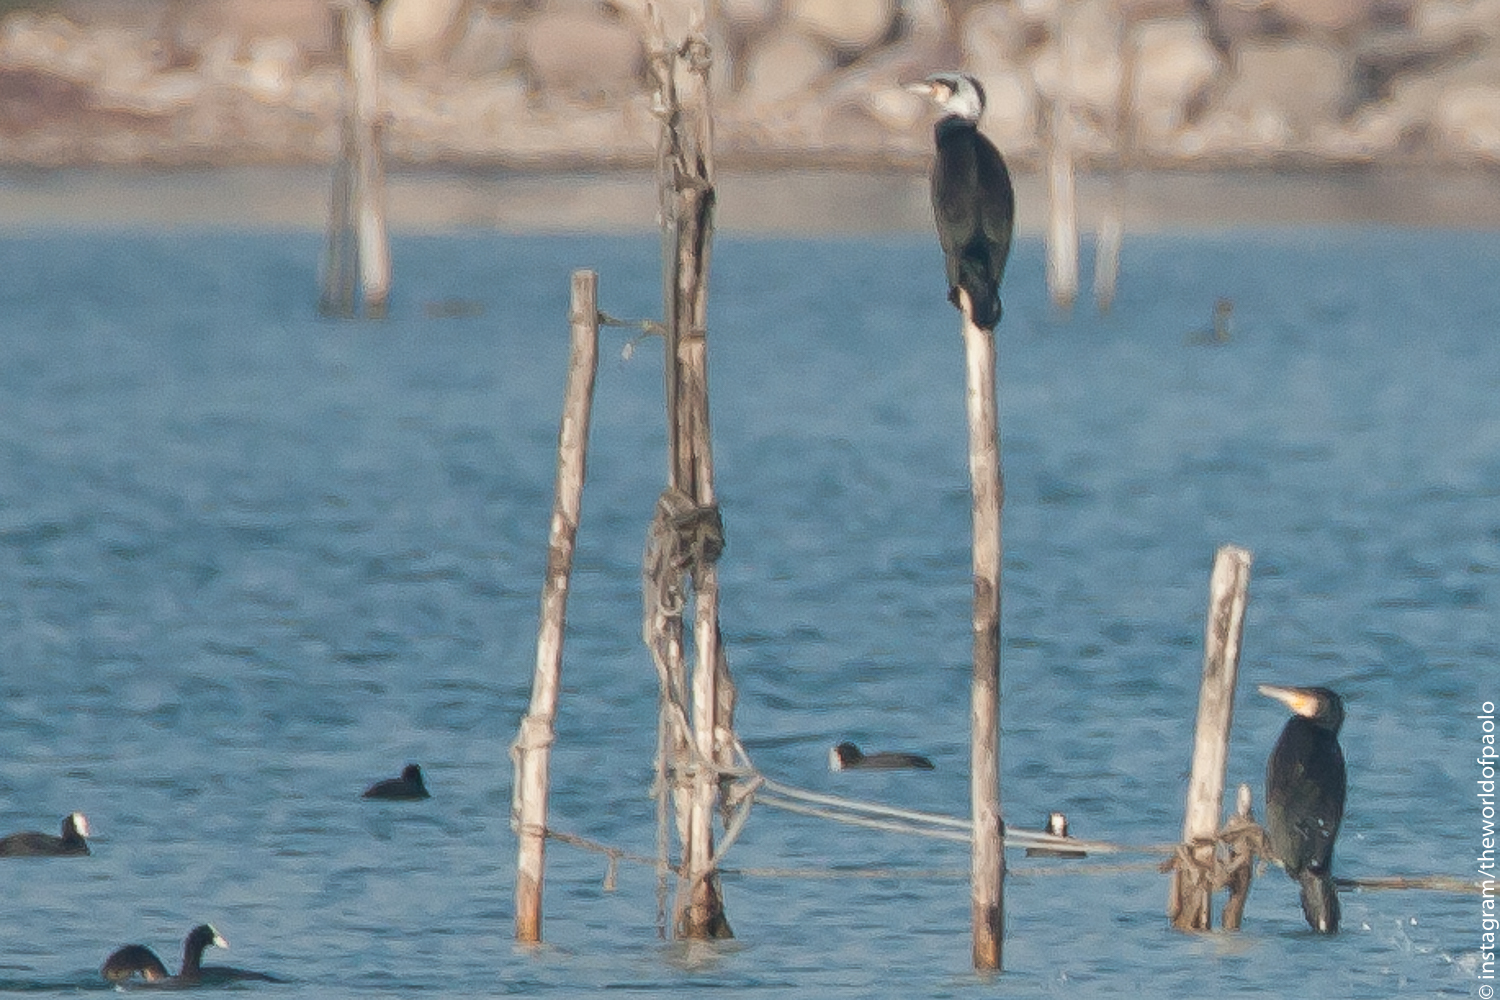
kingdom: Animalia
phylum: Chordata
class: Aves
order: Suliformes
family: Phalacrocoracidae
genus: Phalacrocorax
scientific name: Phalacrocorax carbo
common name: Great cormorant
